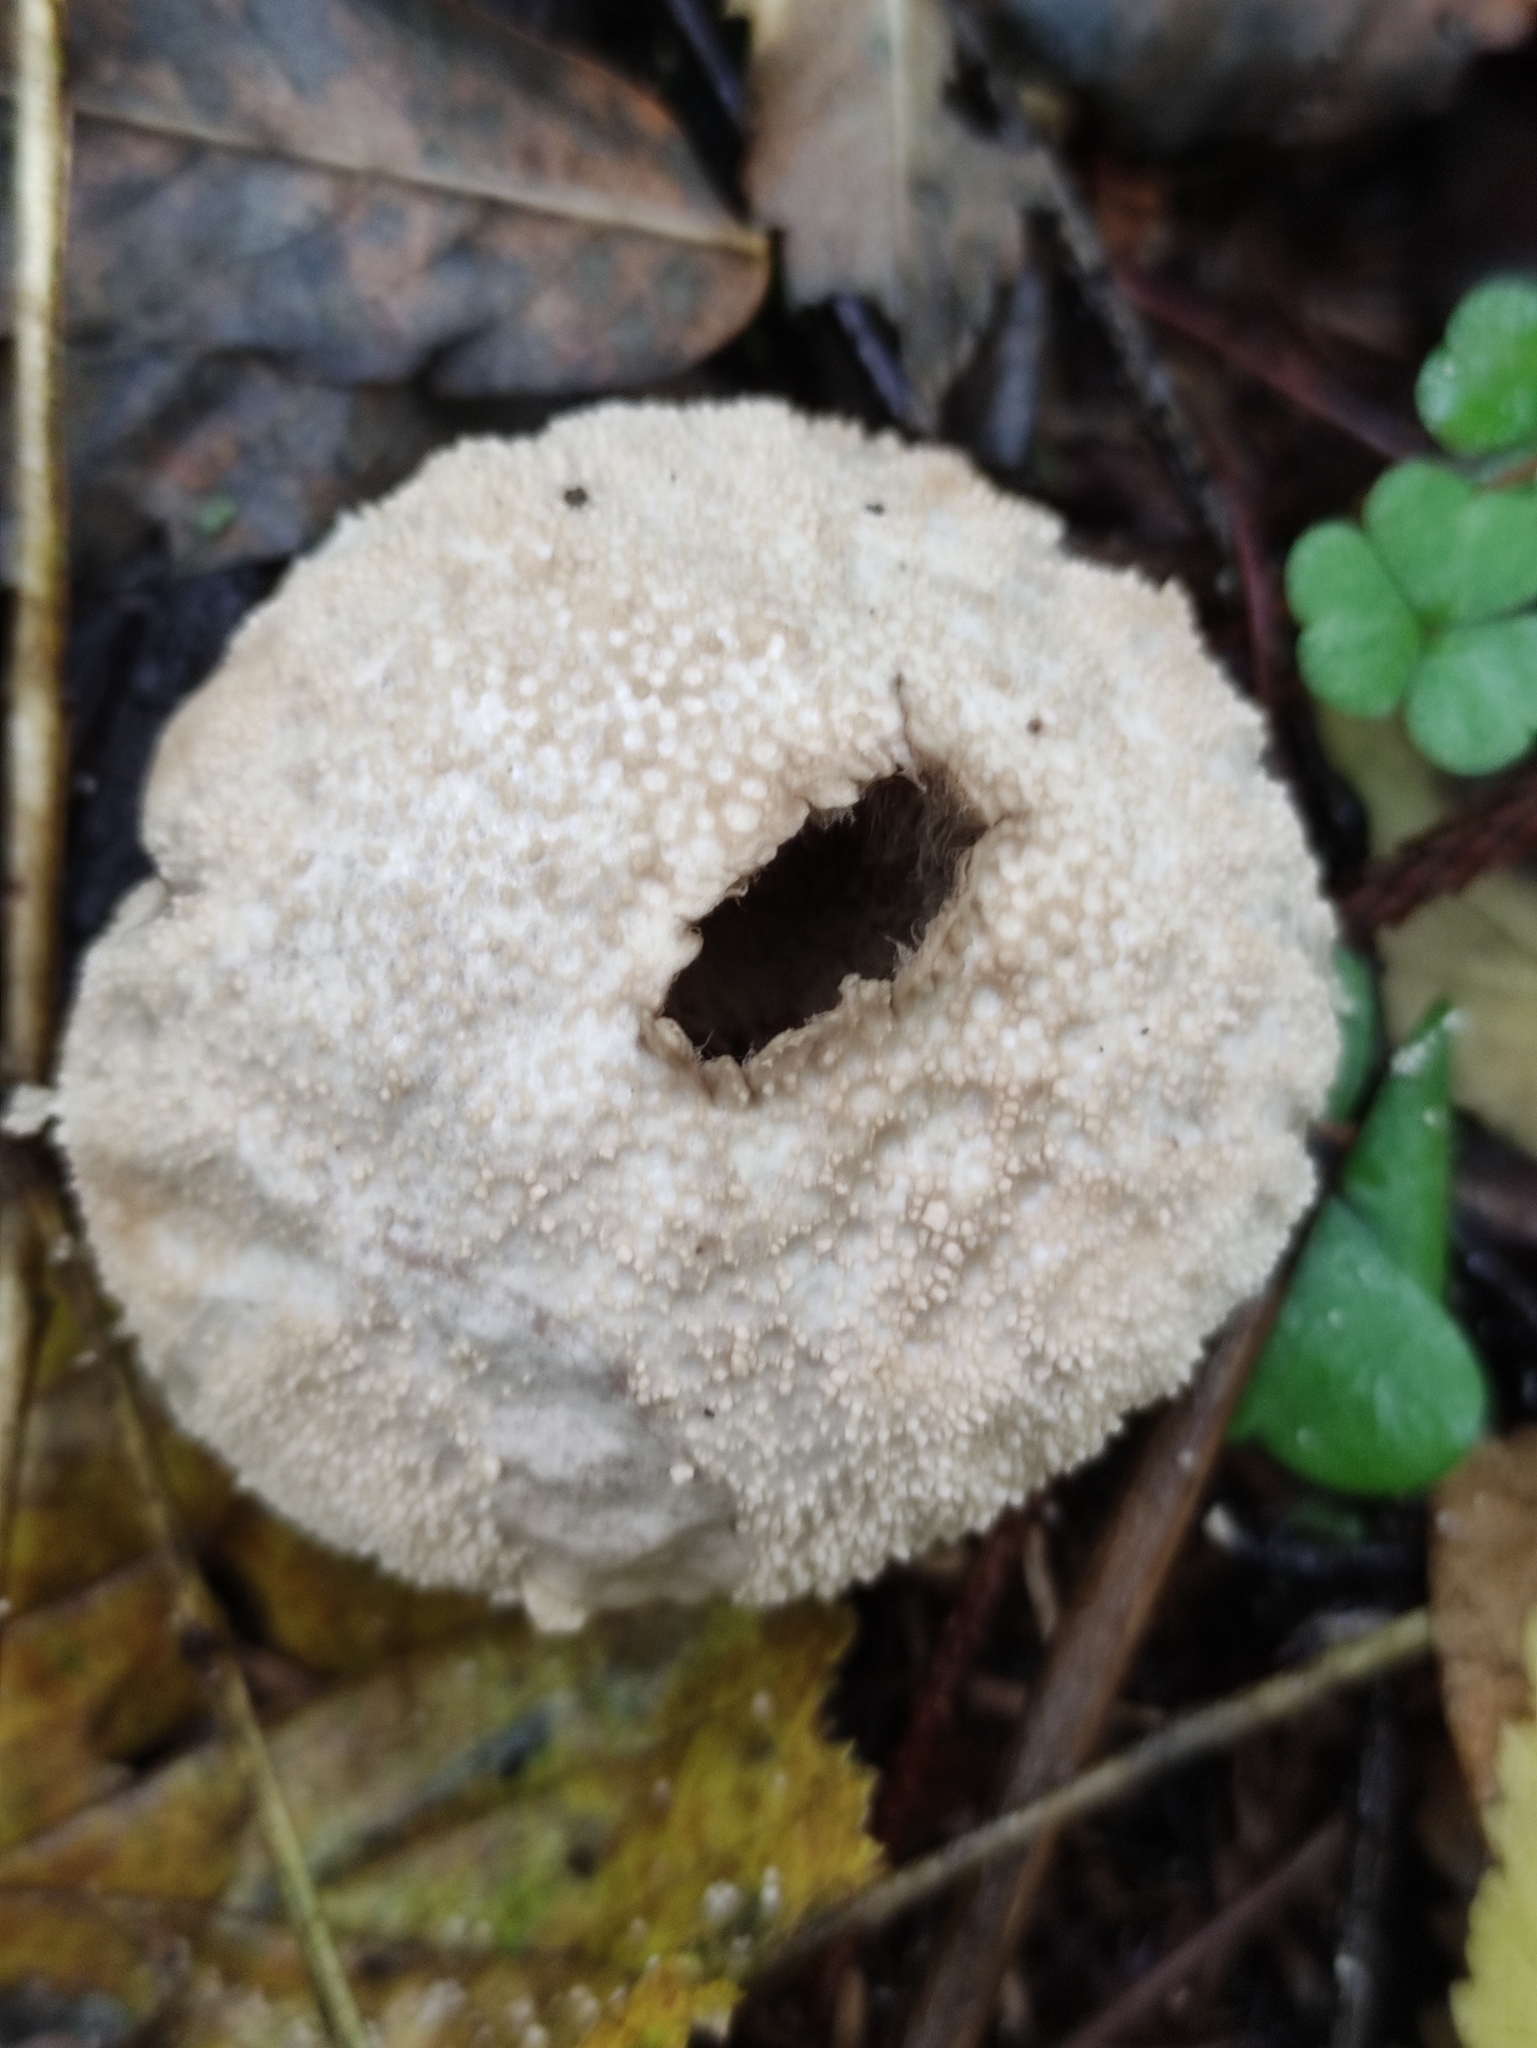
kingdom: Fungi
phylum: Basidiomycota
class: Agaricomycetes
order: Agaricales
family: Lycoperdaceae
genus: Lycoperdon
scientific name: Lycoperdon perlatum
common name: Common puffball
